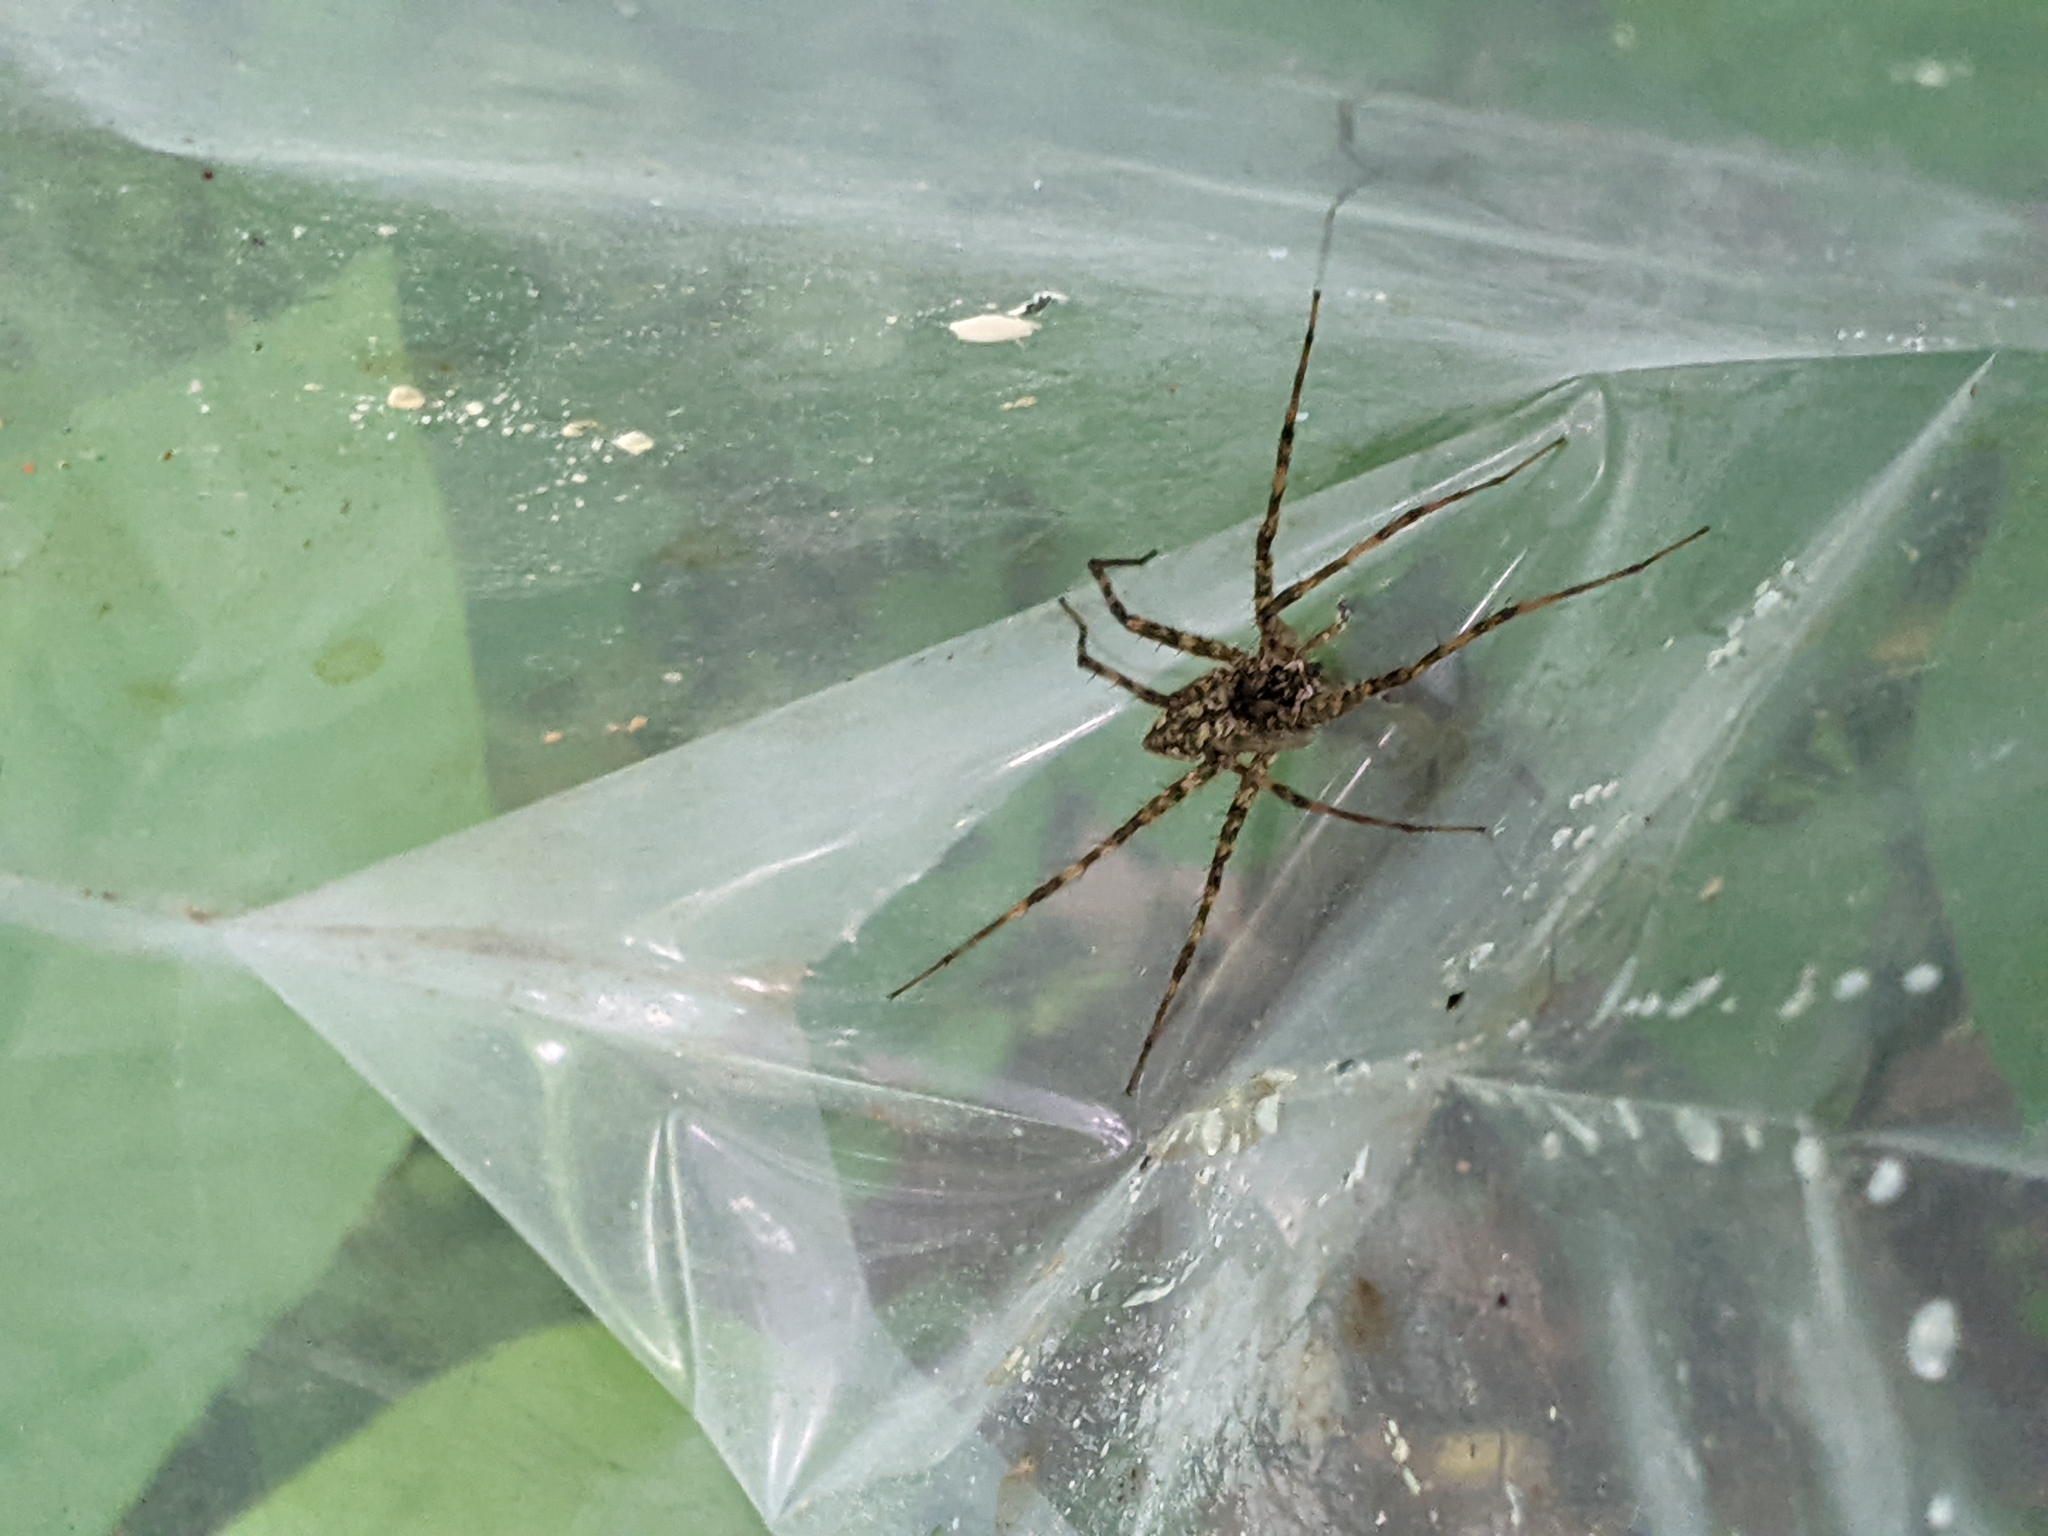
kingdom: Animalia
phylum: Arthropoda
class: Arachnida
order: Araneae
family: Pisauridae
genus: Dolomedes
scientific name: Dolomedes albineus
